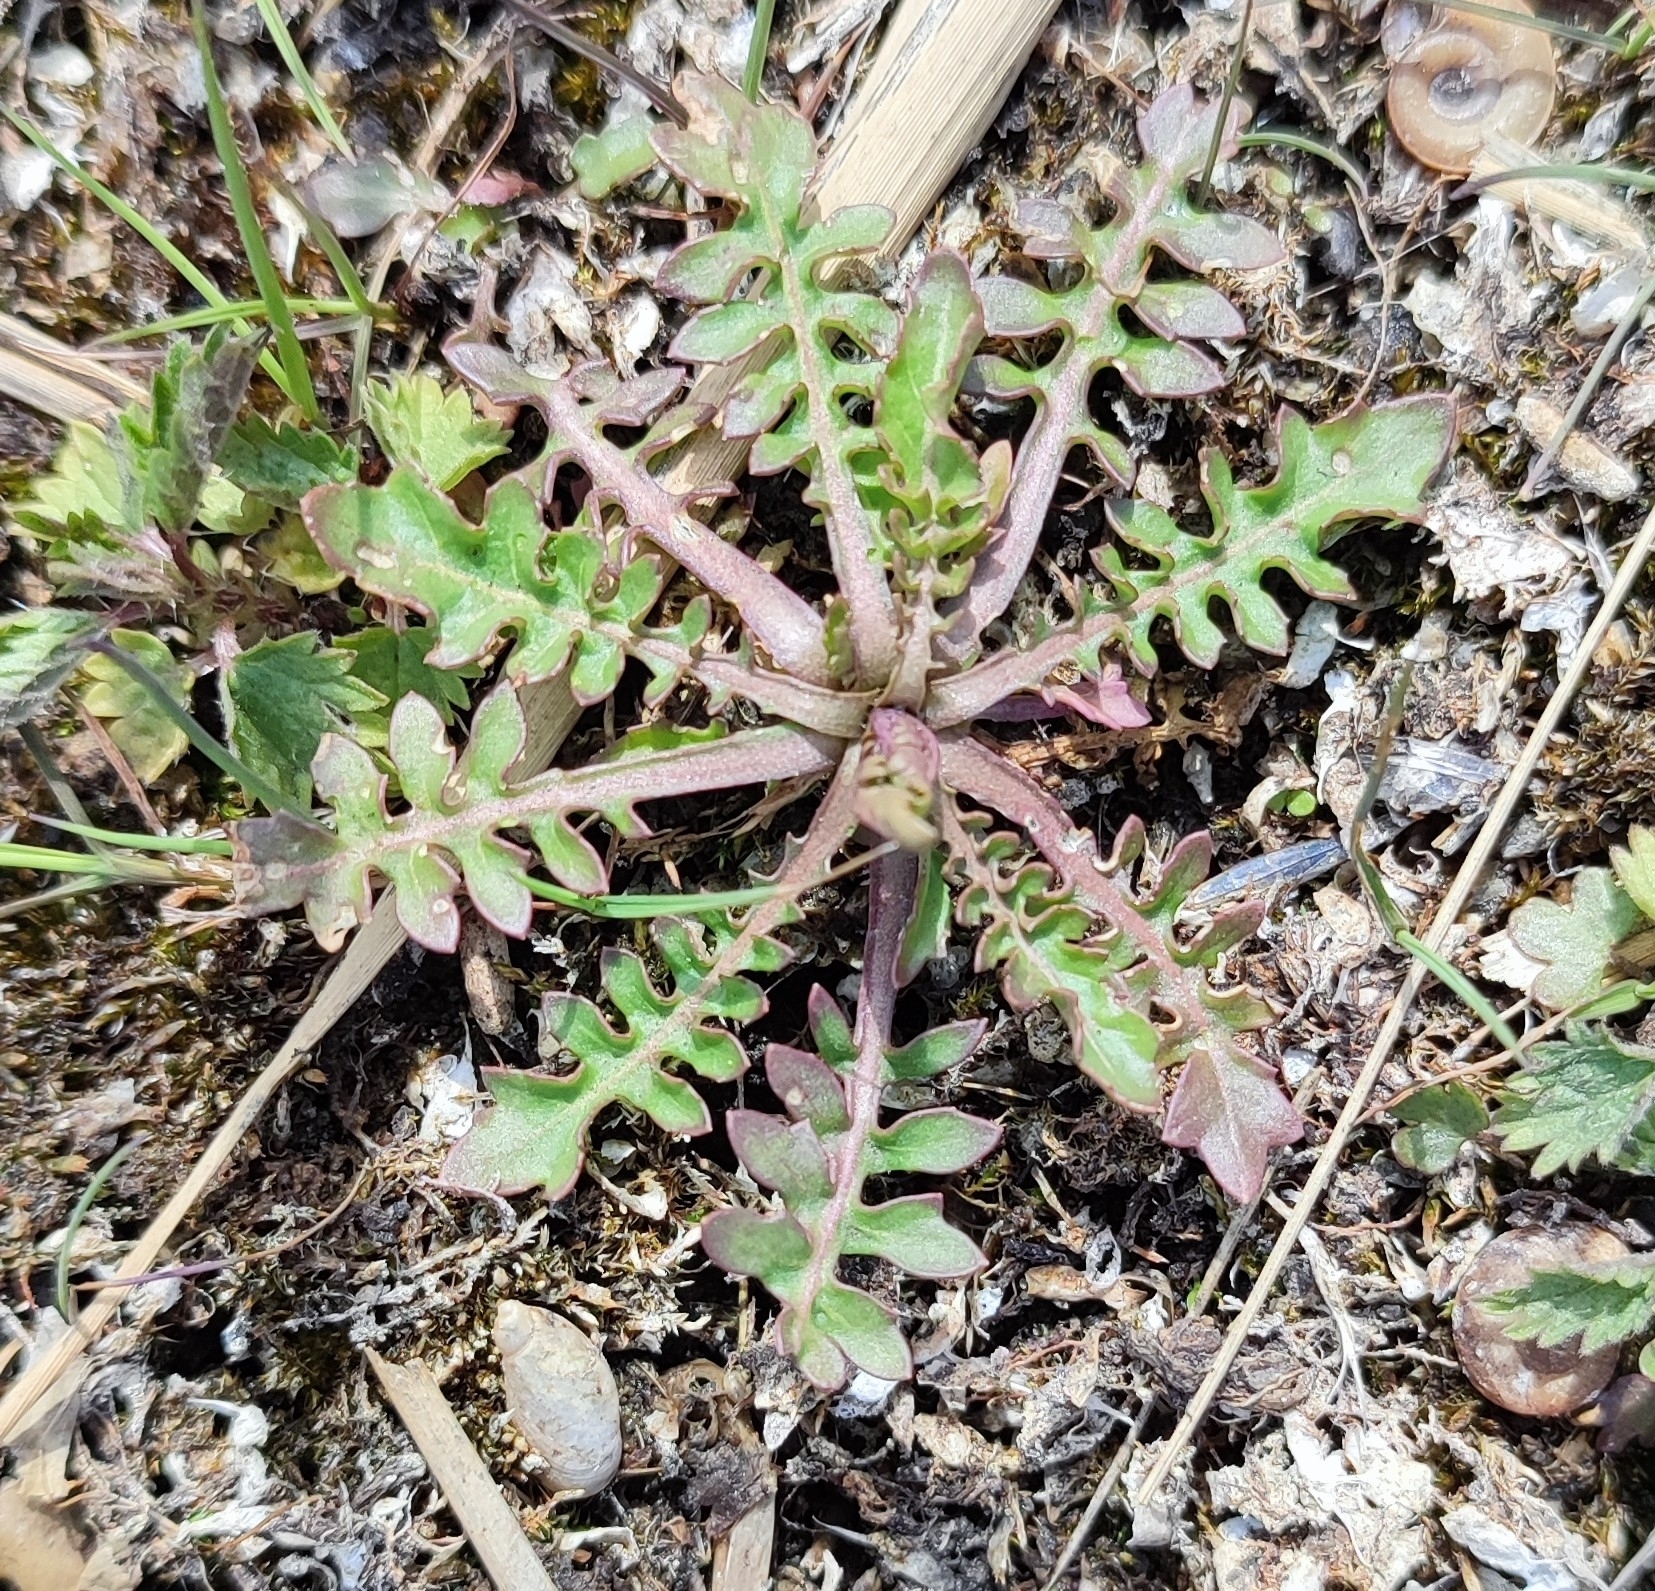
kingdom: Plantae
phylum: Tracheophyta
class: Magnoliopsida
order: Brassicales
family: Brassicaceae
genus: Rorippa
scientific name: Rorippa palustris
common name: Marsh yellow-cress
